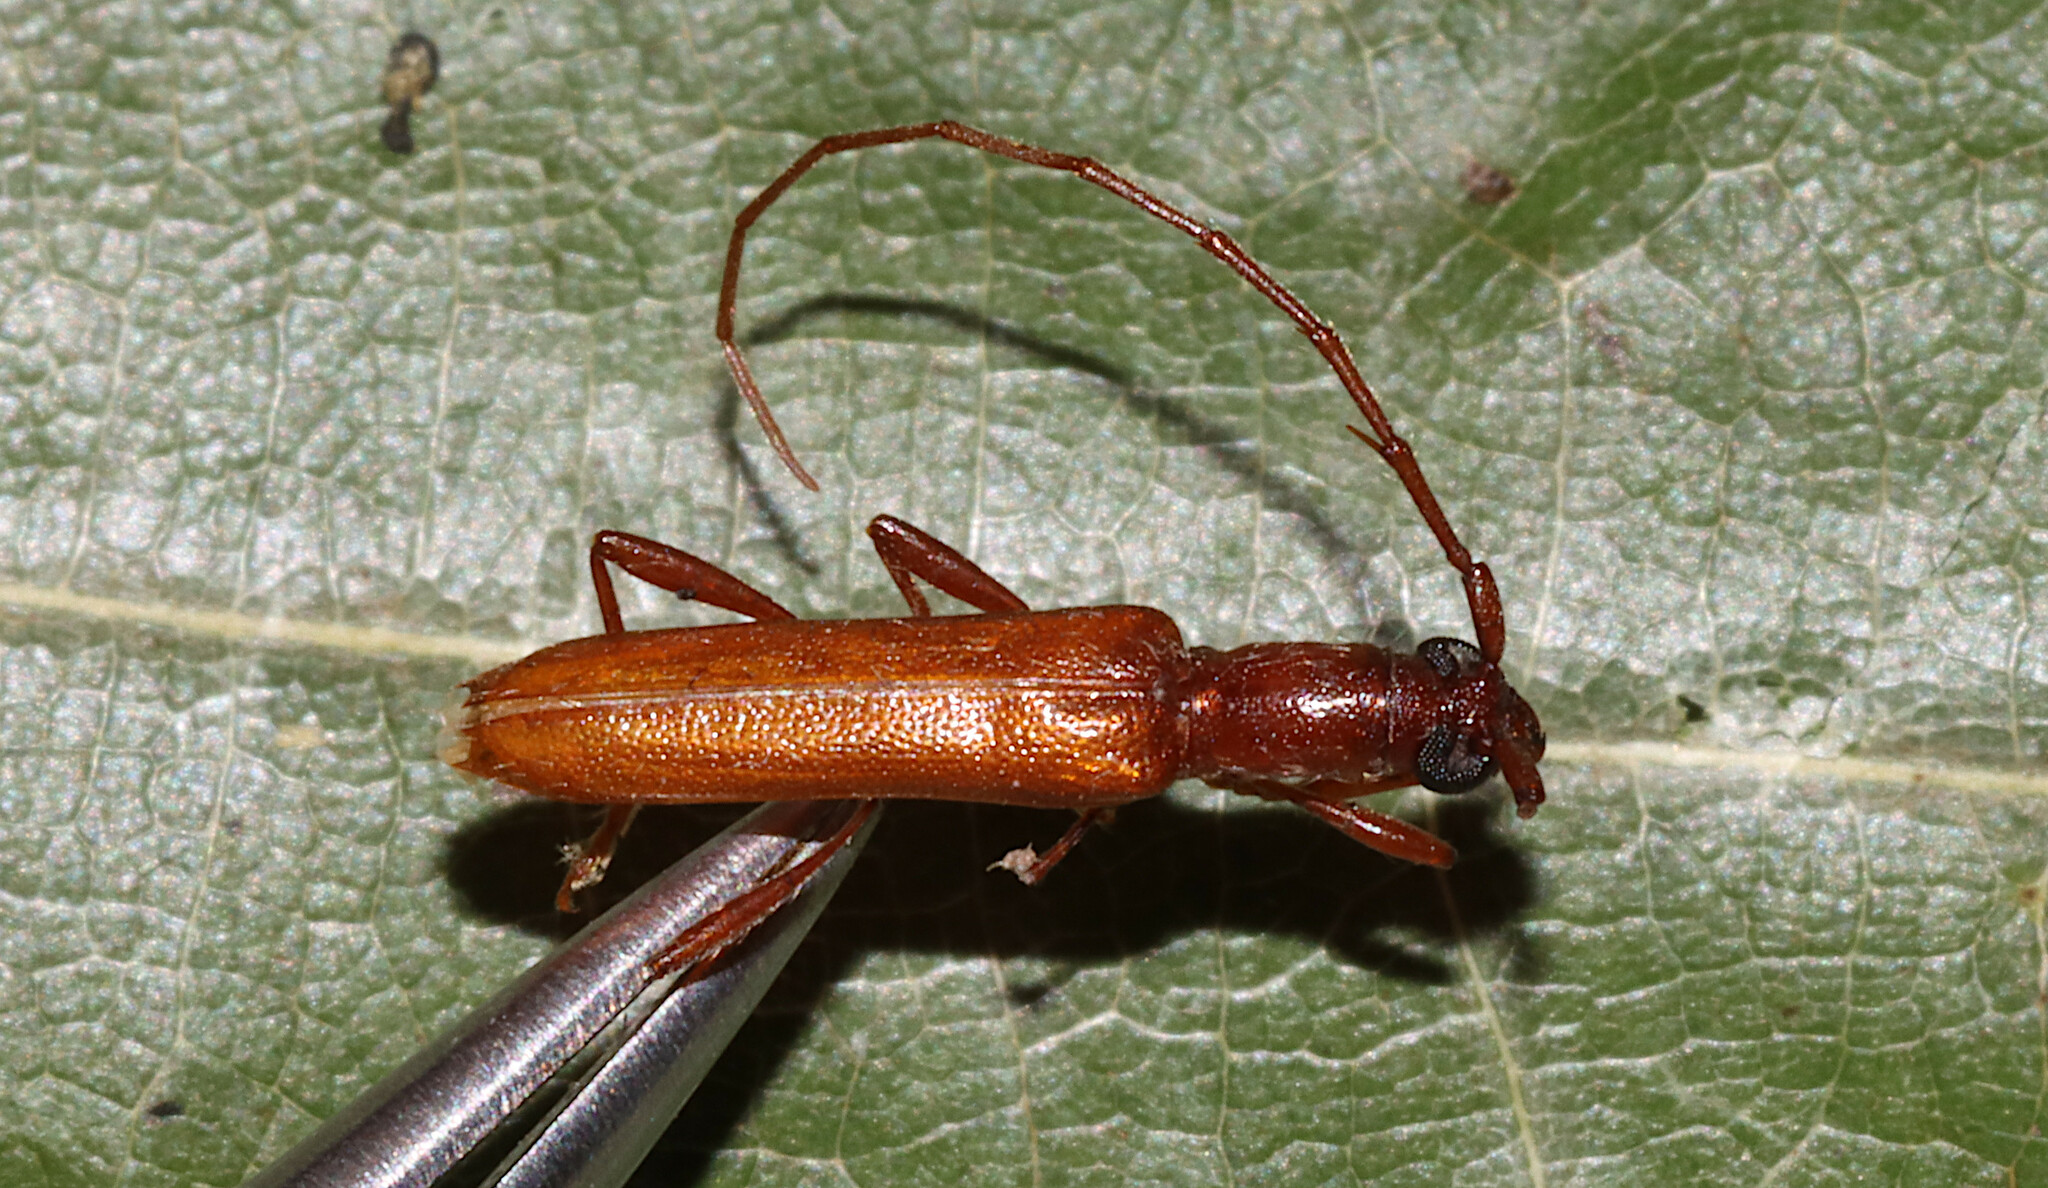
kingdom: Animalia
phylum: Arthropoda
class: Insecta
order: Coleoptera
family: Cerambycidae
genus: Psyrassa
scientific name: Psyrassa pertenuis
